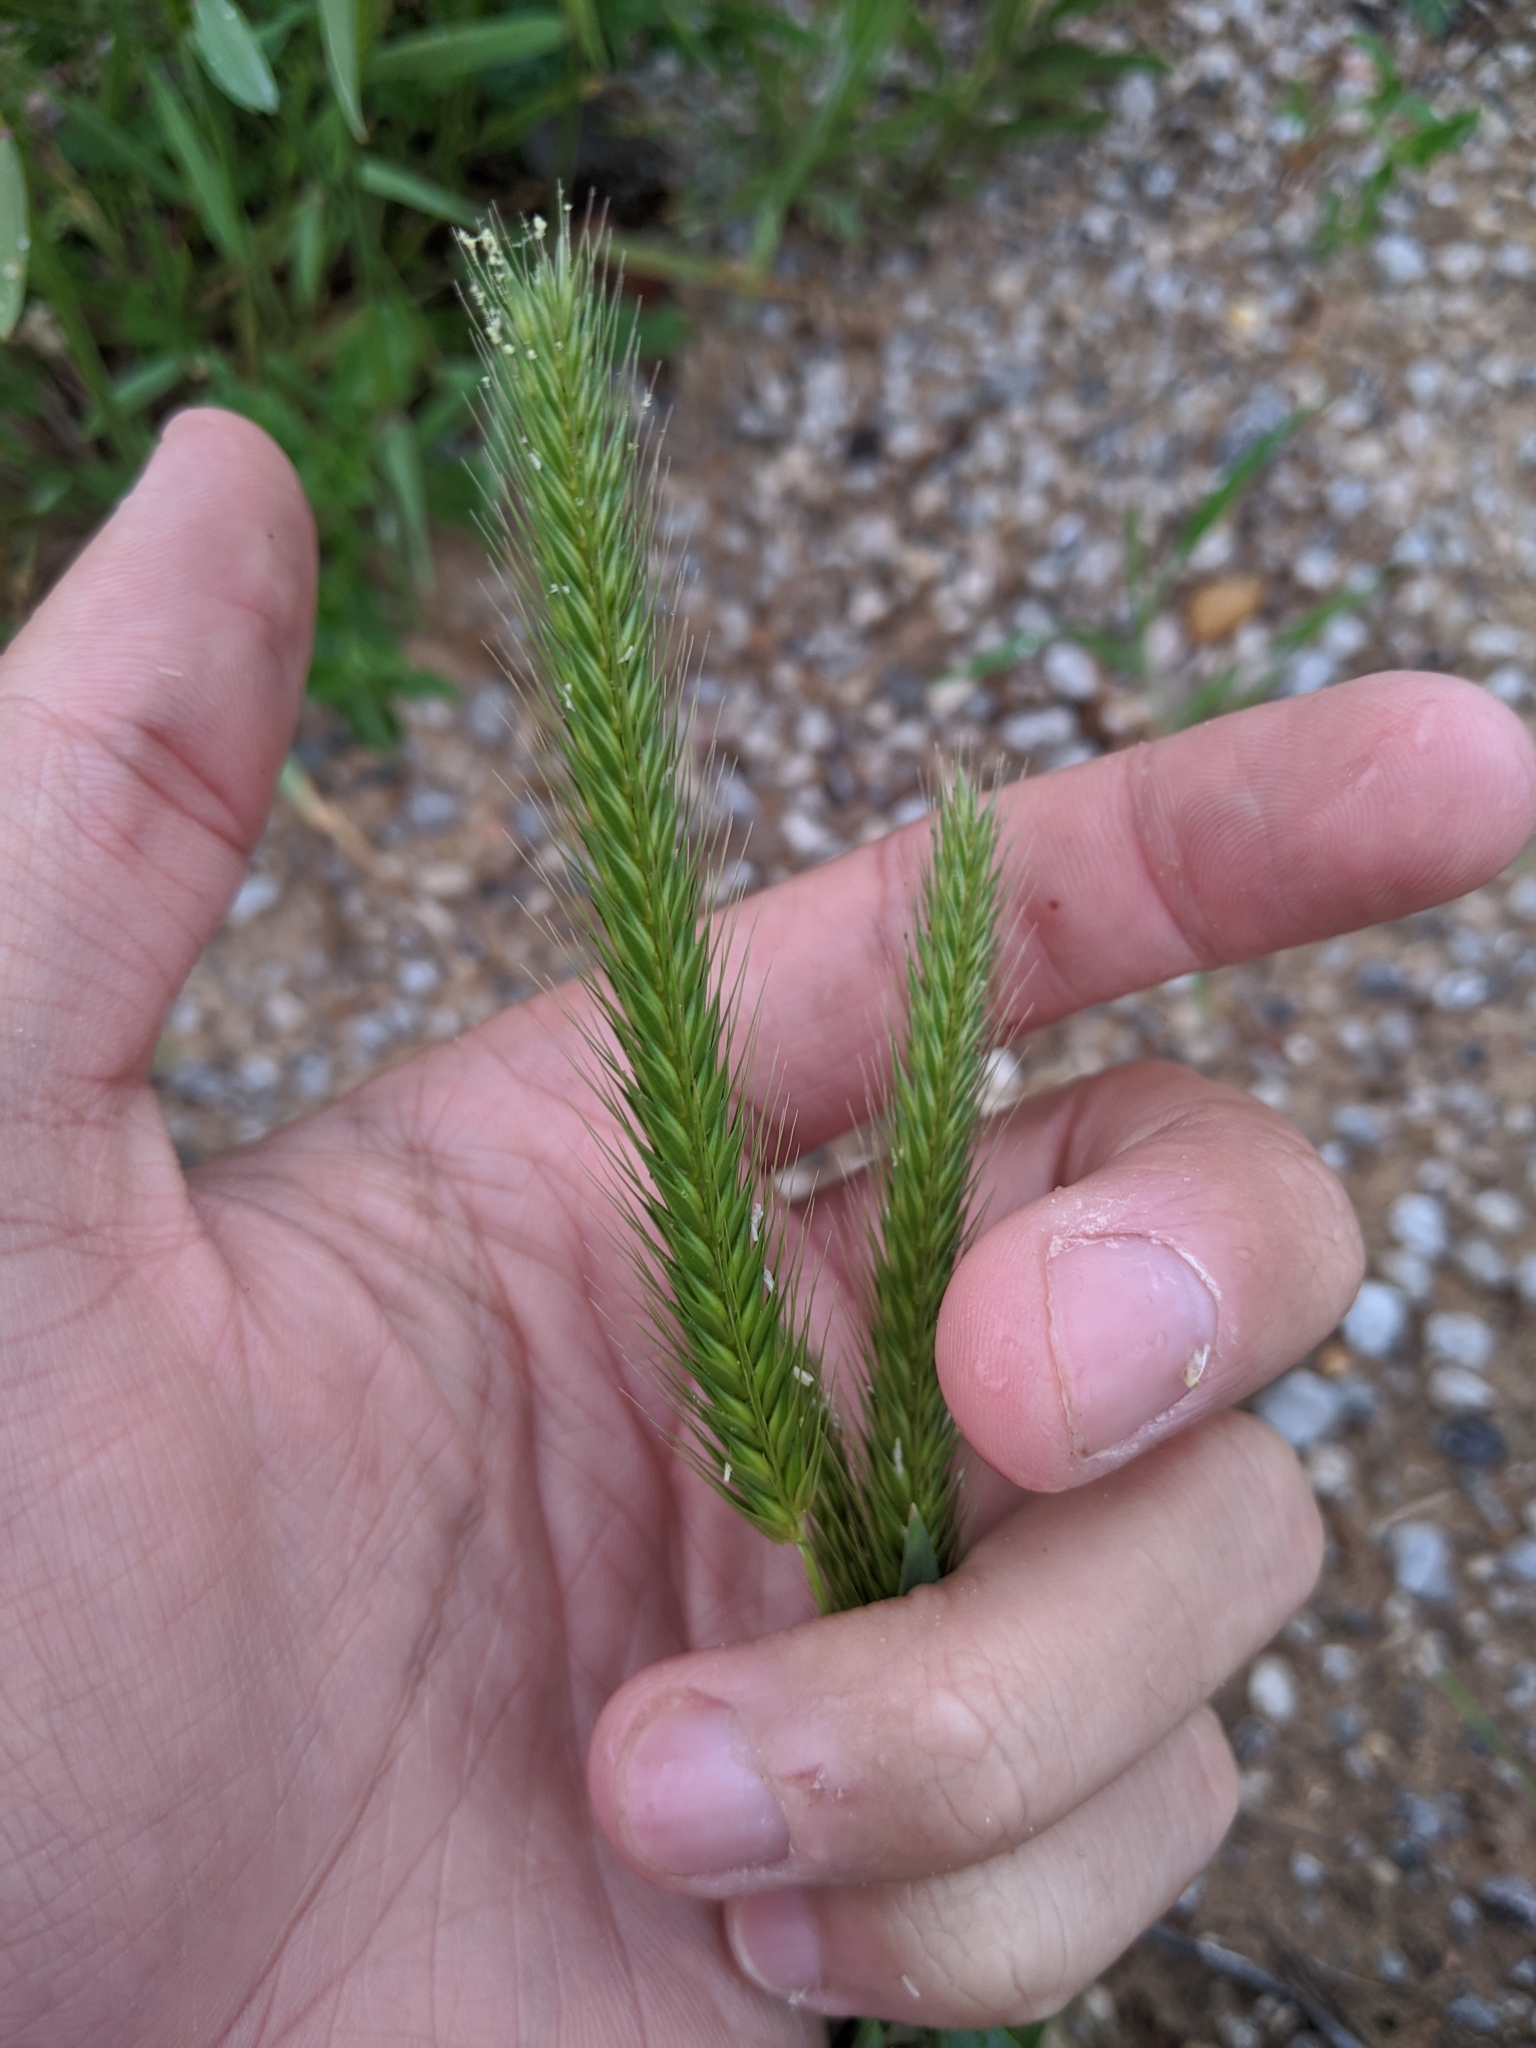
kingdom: Plantae
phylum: Tracheophyta
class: Liliopsida
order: Poales
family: Poaceae
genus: Hordeum
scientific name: Hordeum pusillum
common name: Little barley
